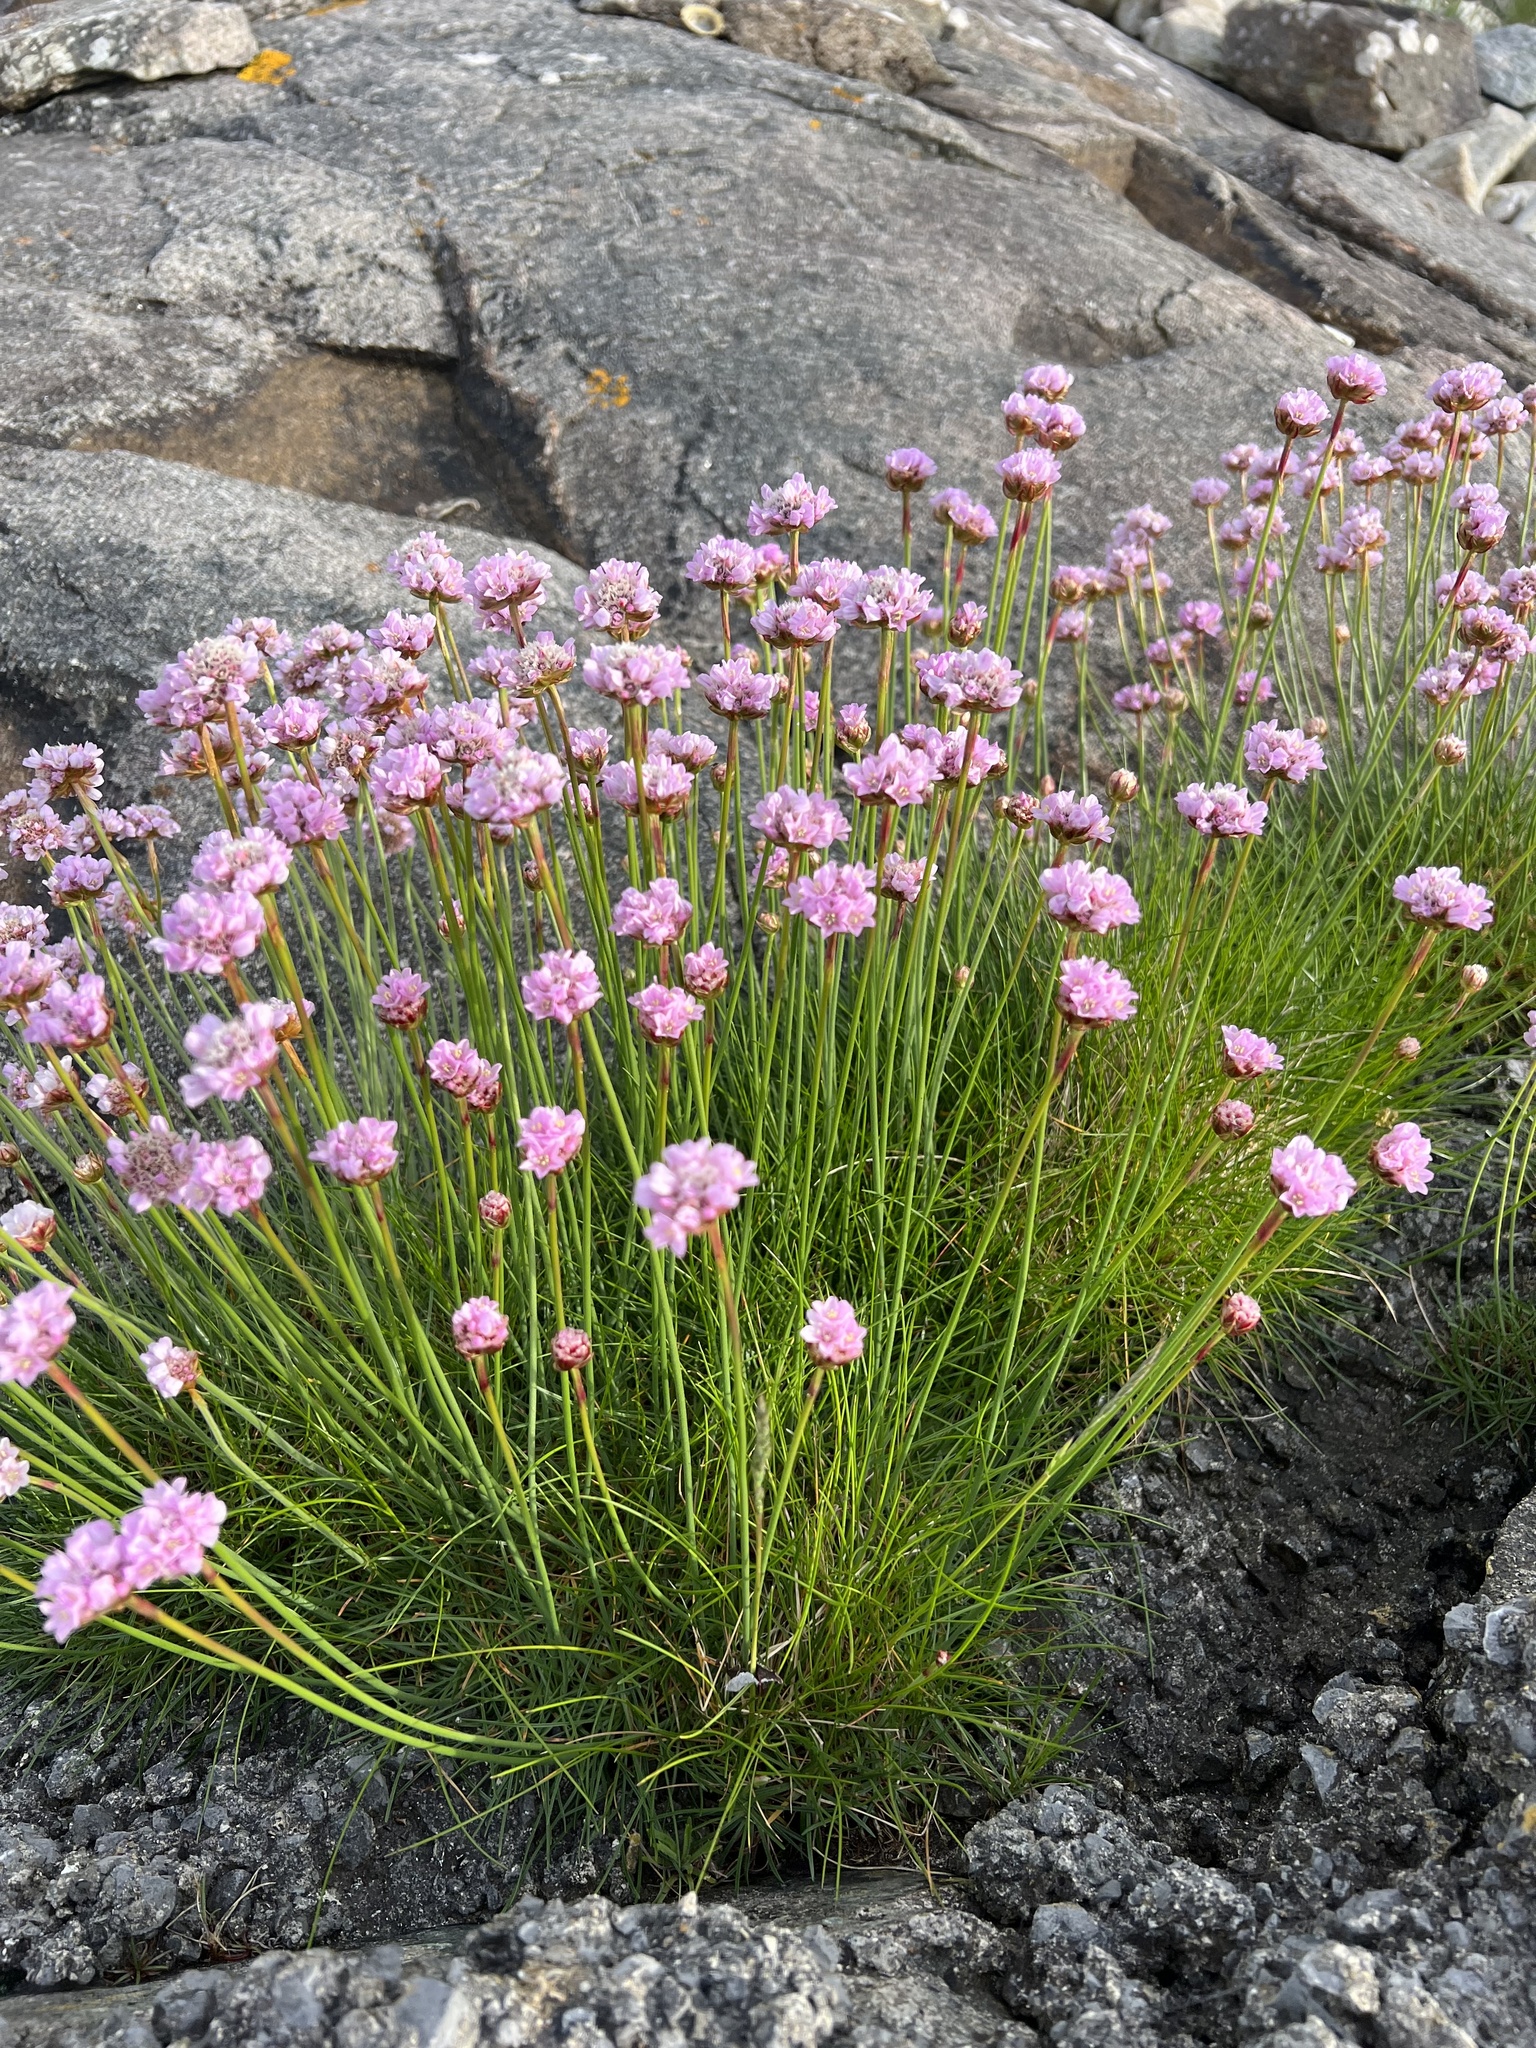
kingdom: Plantae
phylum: Tracheophyta
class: Magnoliopsida
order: Caryophyllales
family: Plumbaginaceae
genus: Armeria
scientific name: Armeria maritima
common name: Thrift
